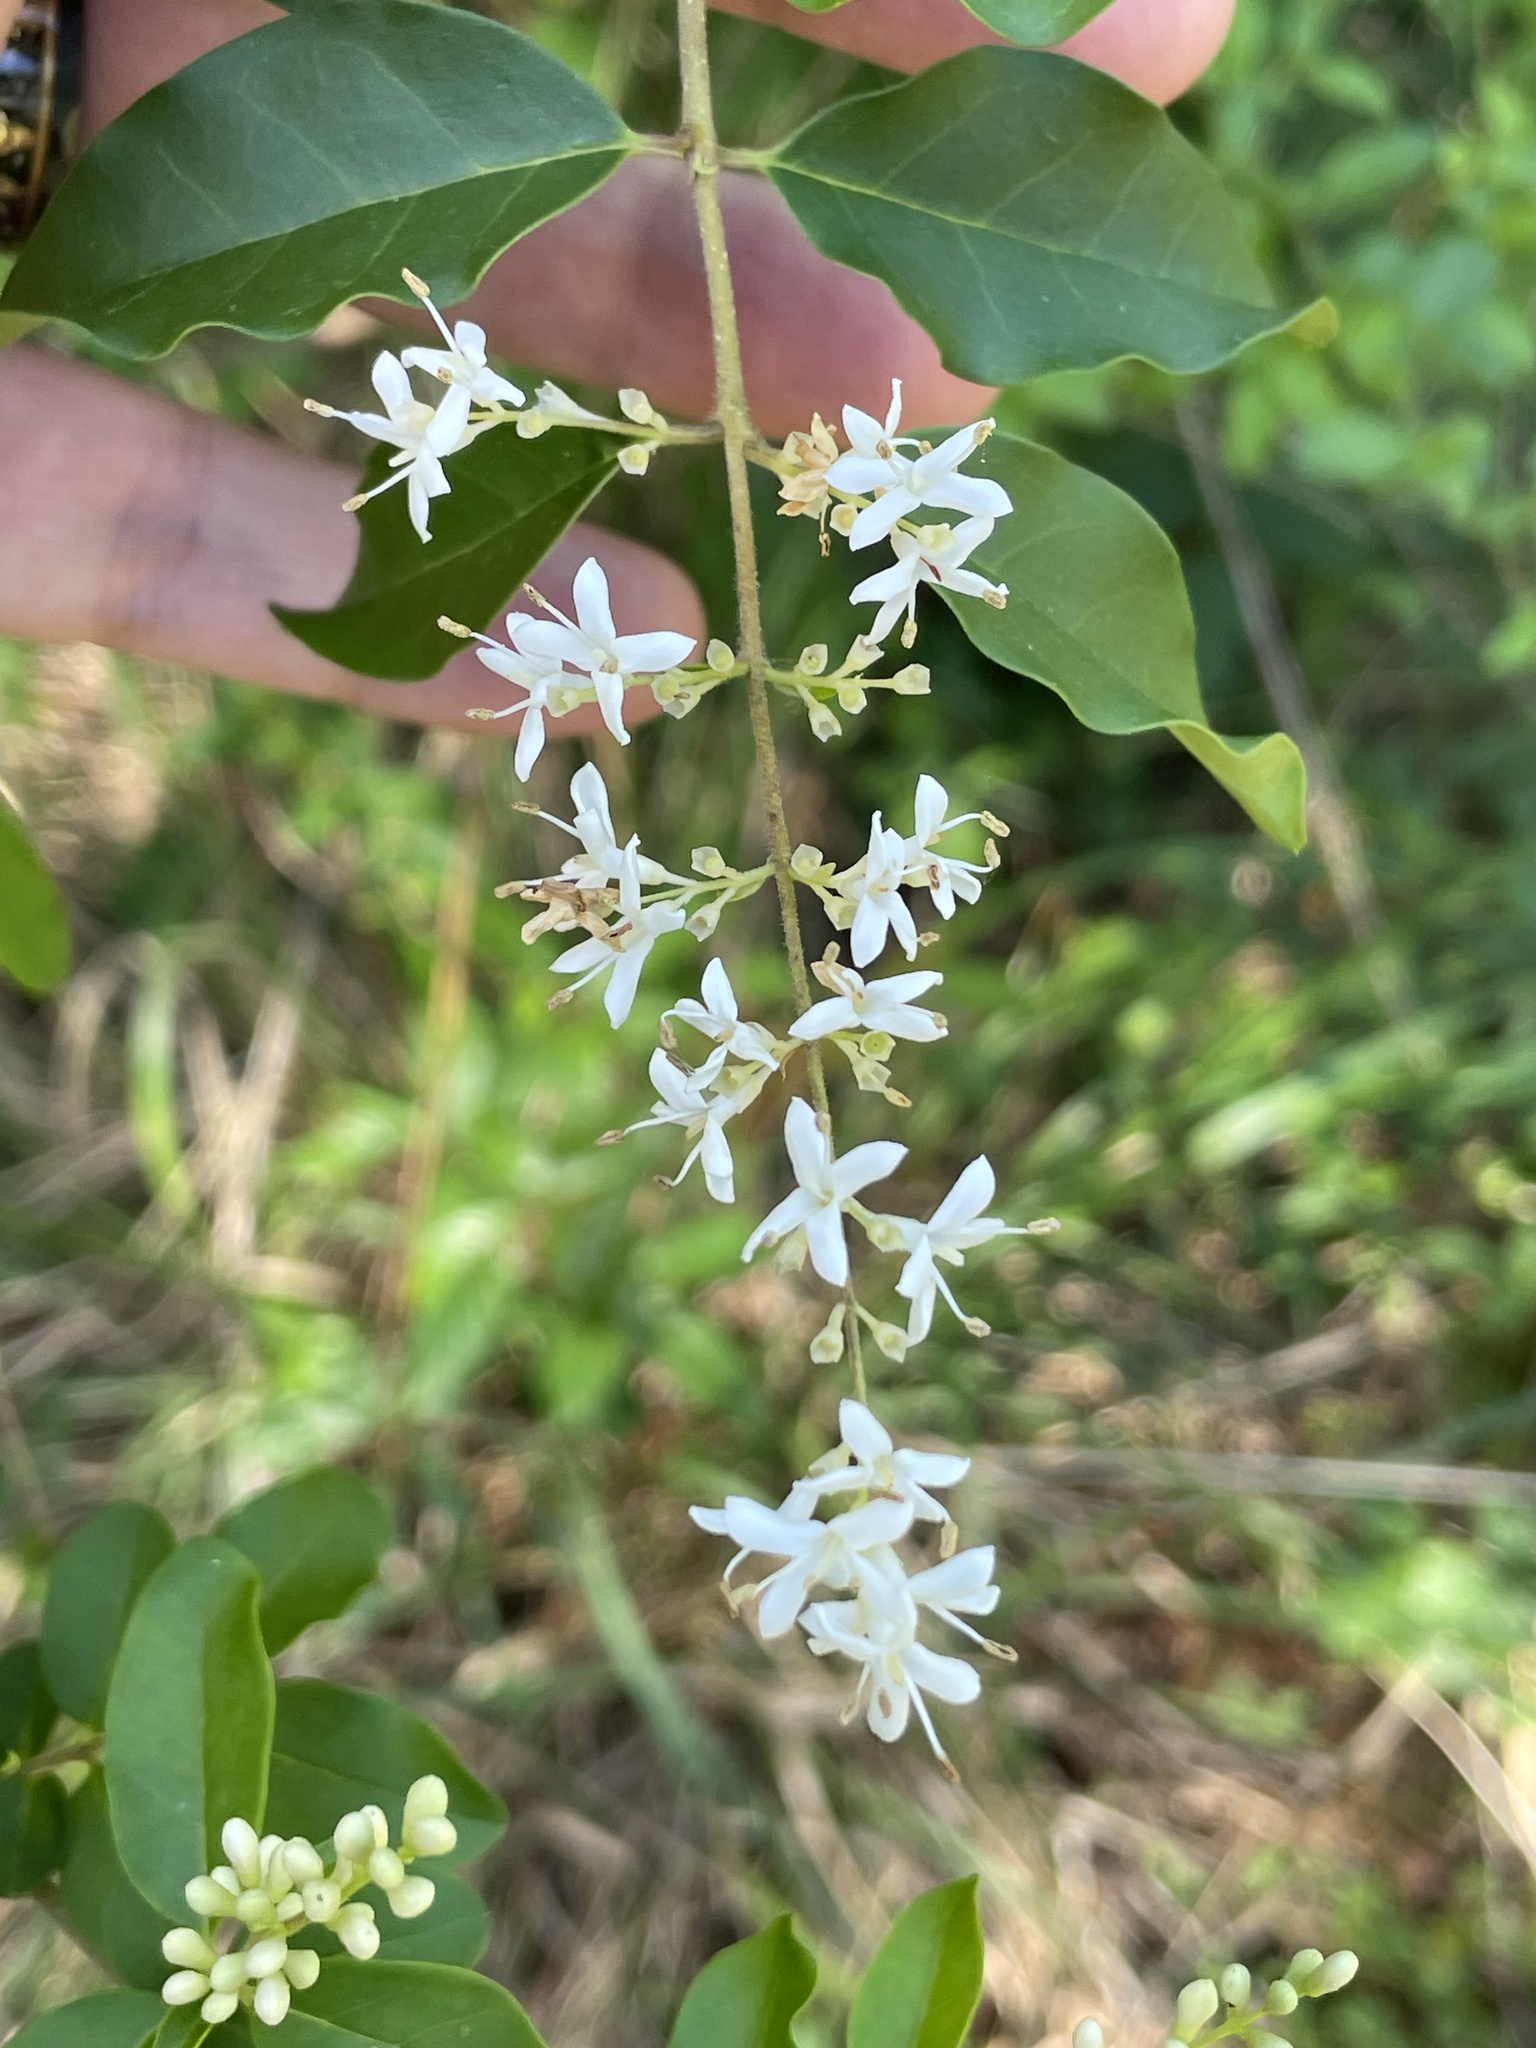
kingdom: Plantae
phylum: Tracheophyta
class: Magnoliopsida
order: Lamiales
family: Oleaceae
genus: Ligustrum
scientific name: Ligustrum sinense
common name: Chinese privet
